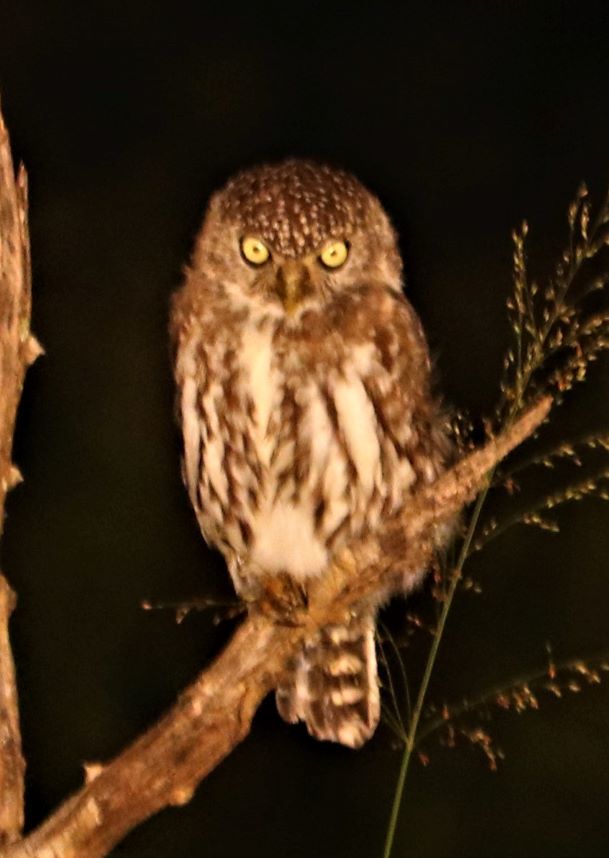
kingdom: Animalia
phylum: Chordata
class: Aves
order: Strigiformes
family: Strigidae
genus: Glaucidium
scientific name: Glaucidium perlatum
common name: Pearl-spotted owlet
